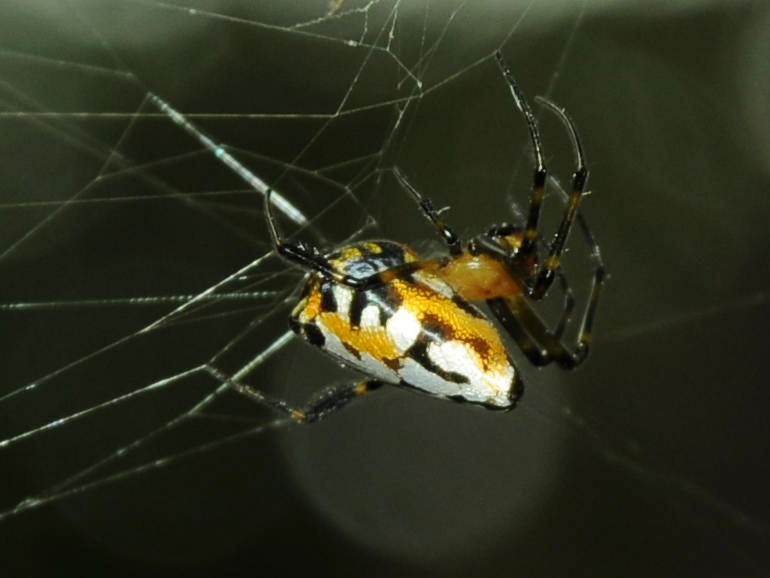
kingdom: Animalia
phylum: Arthropoda
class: Arachnida
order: Araneae
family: Tetragnathidae
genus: Leucauge
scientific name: Leucauge fastigata
